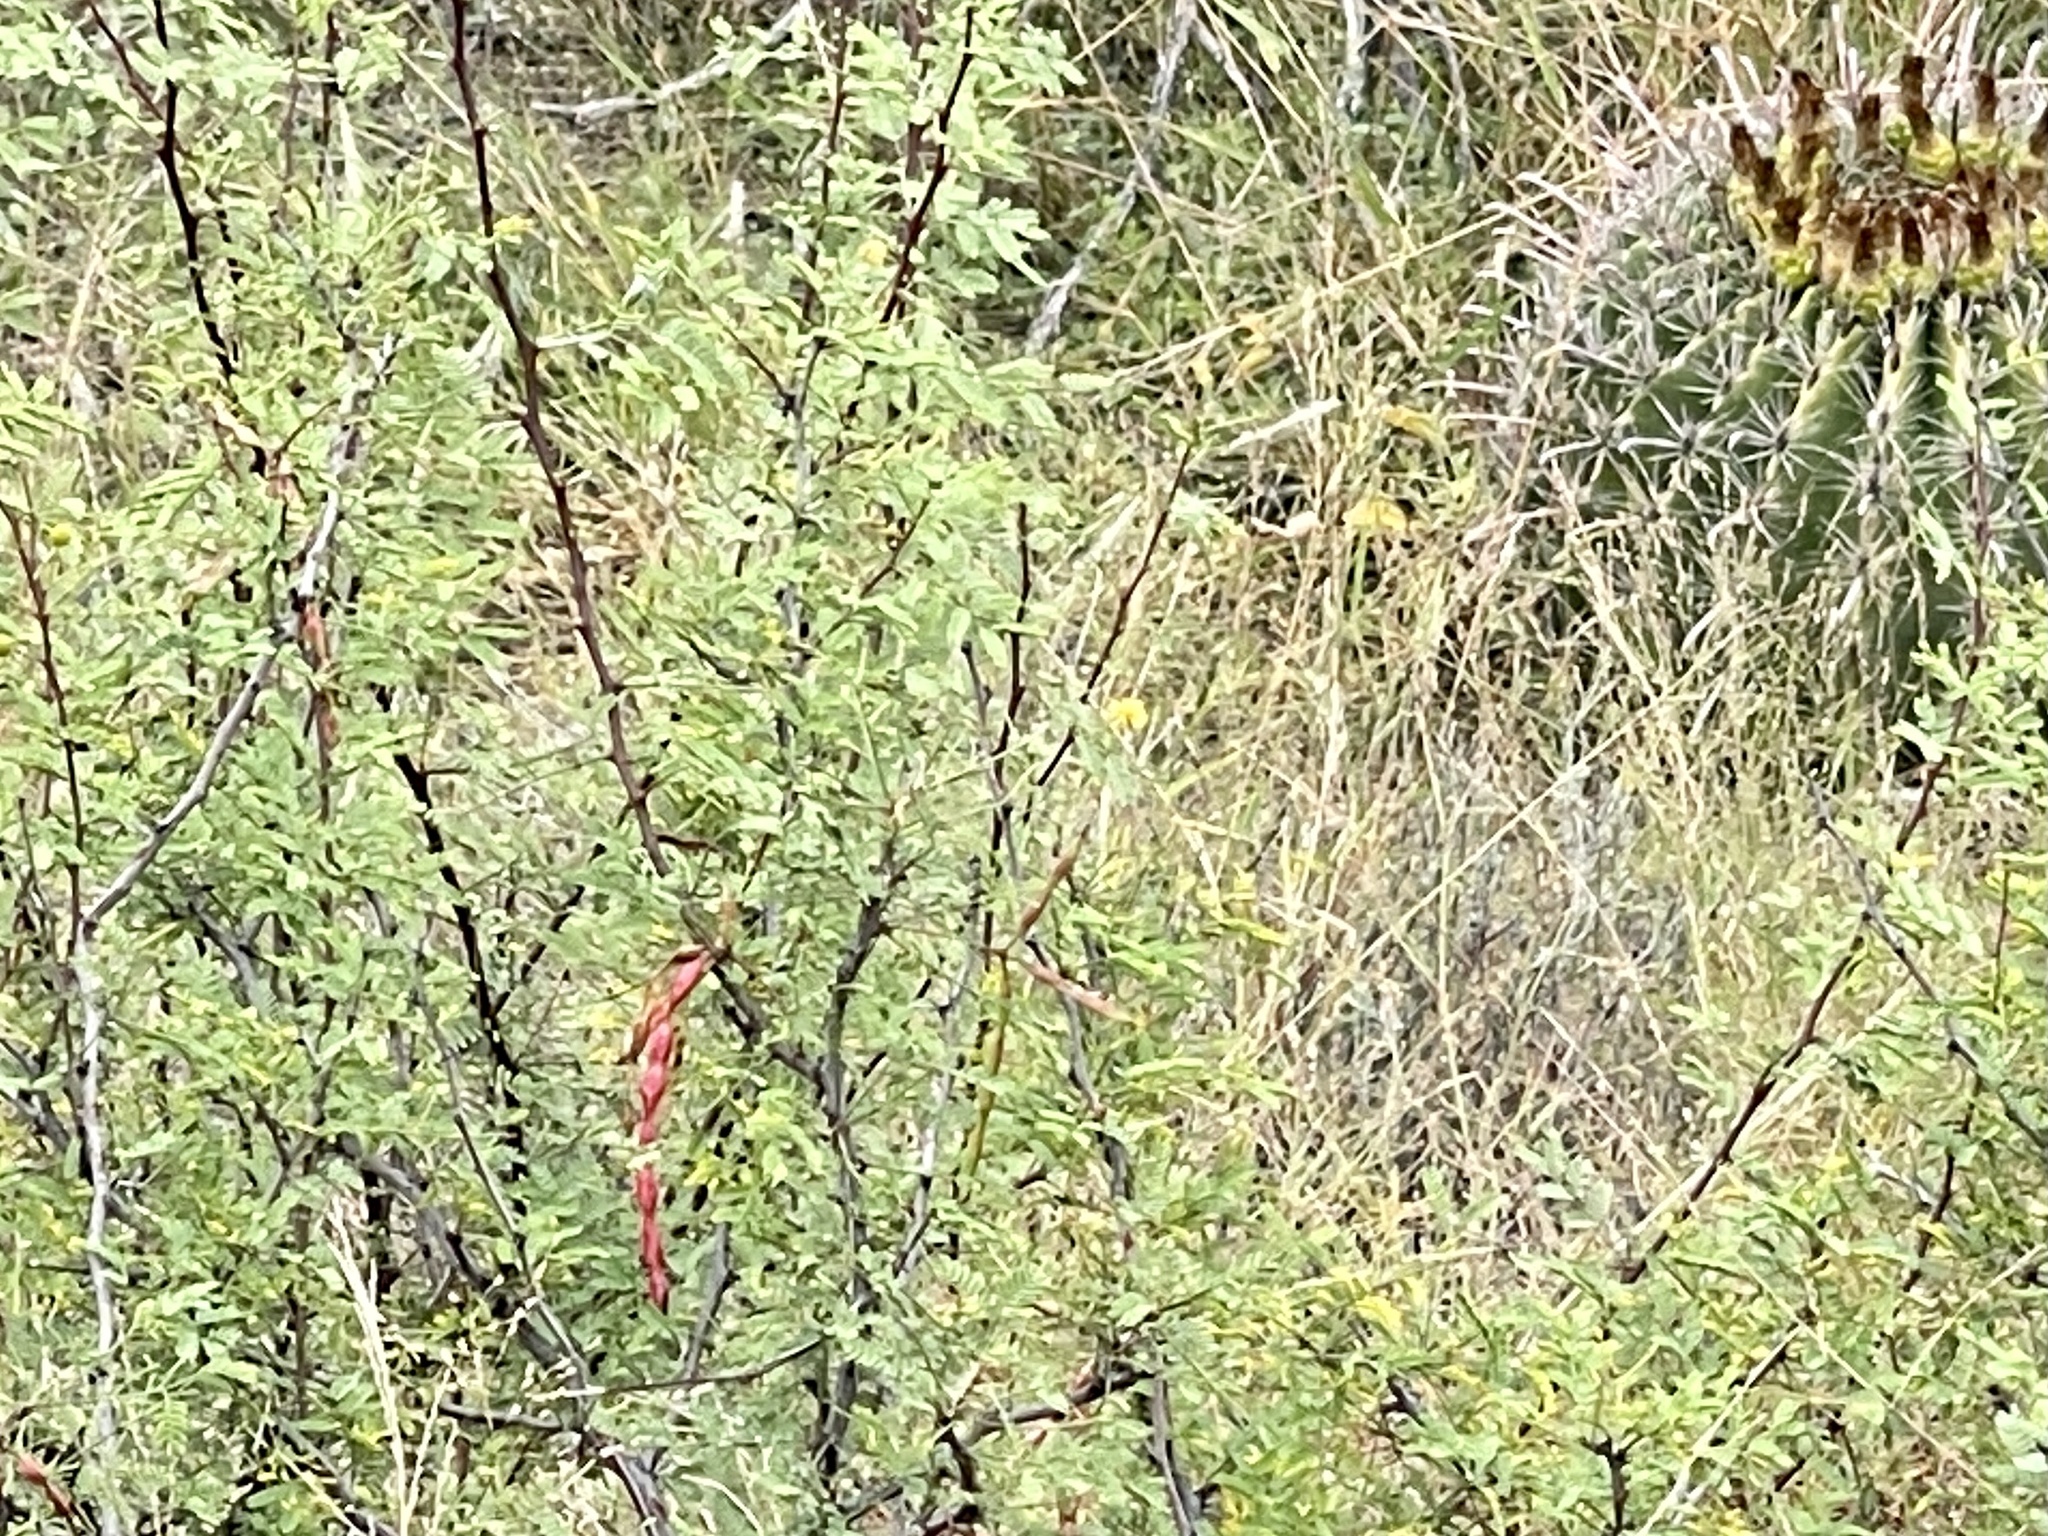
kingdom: Plantae
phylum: Tracheophyta
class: Magnoliopsida
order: Fabales
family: Fabaceae
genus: Vachellia
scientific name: Vachellia constricta
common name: Mescat acacia
